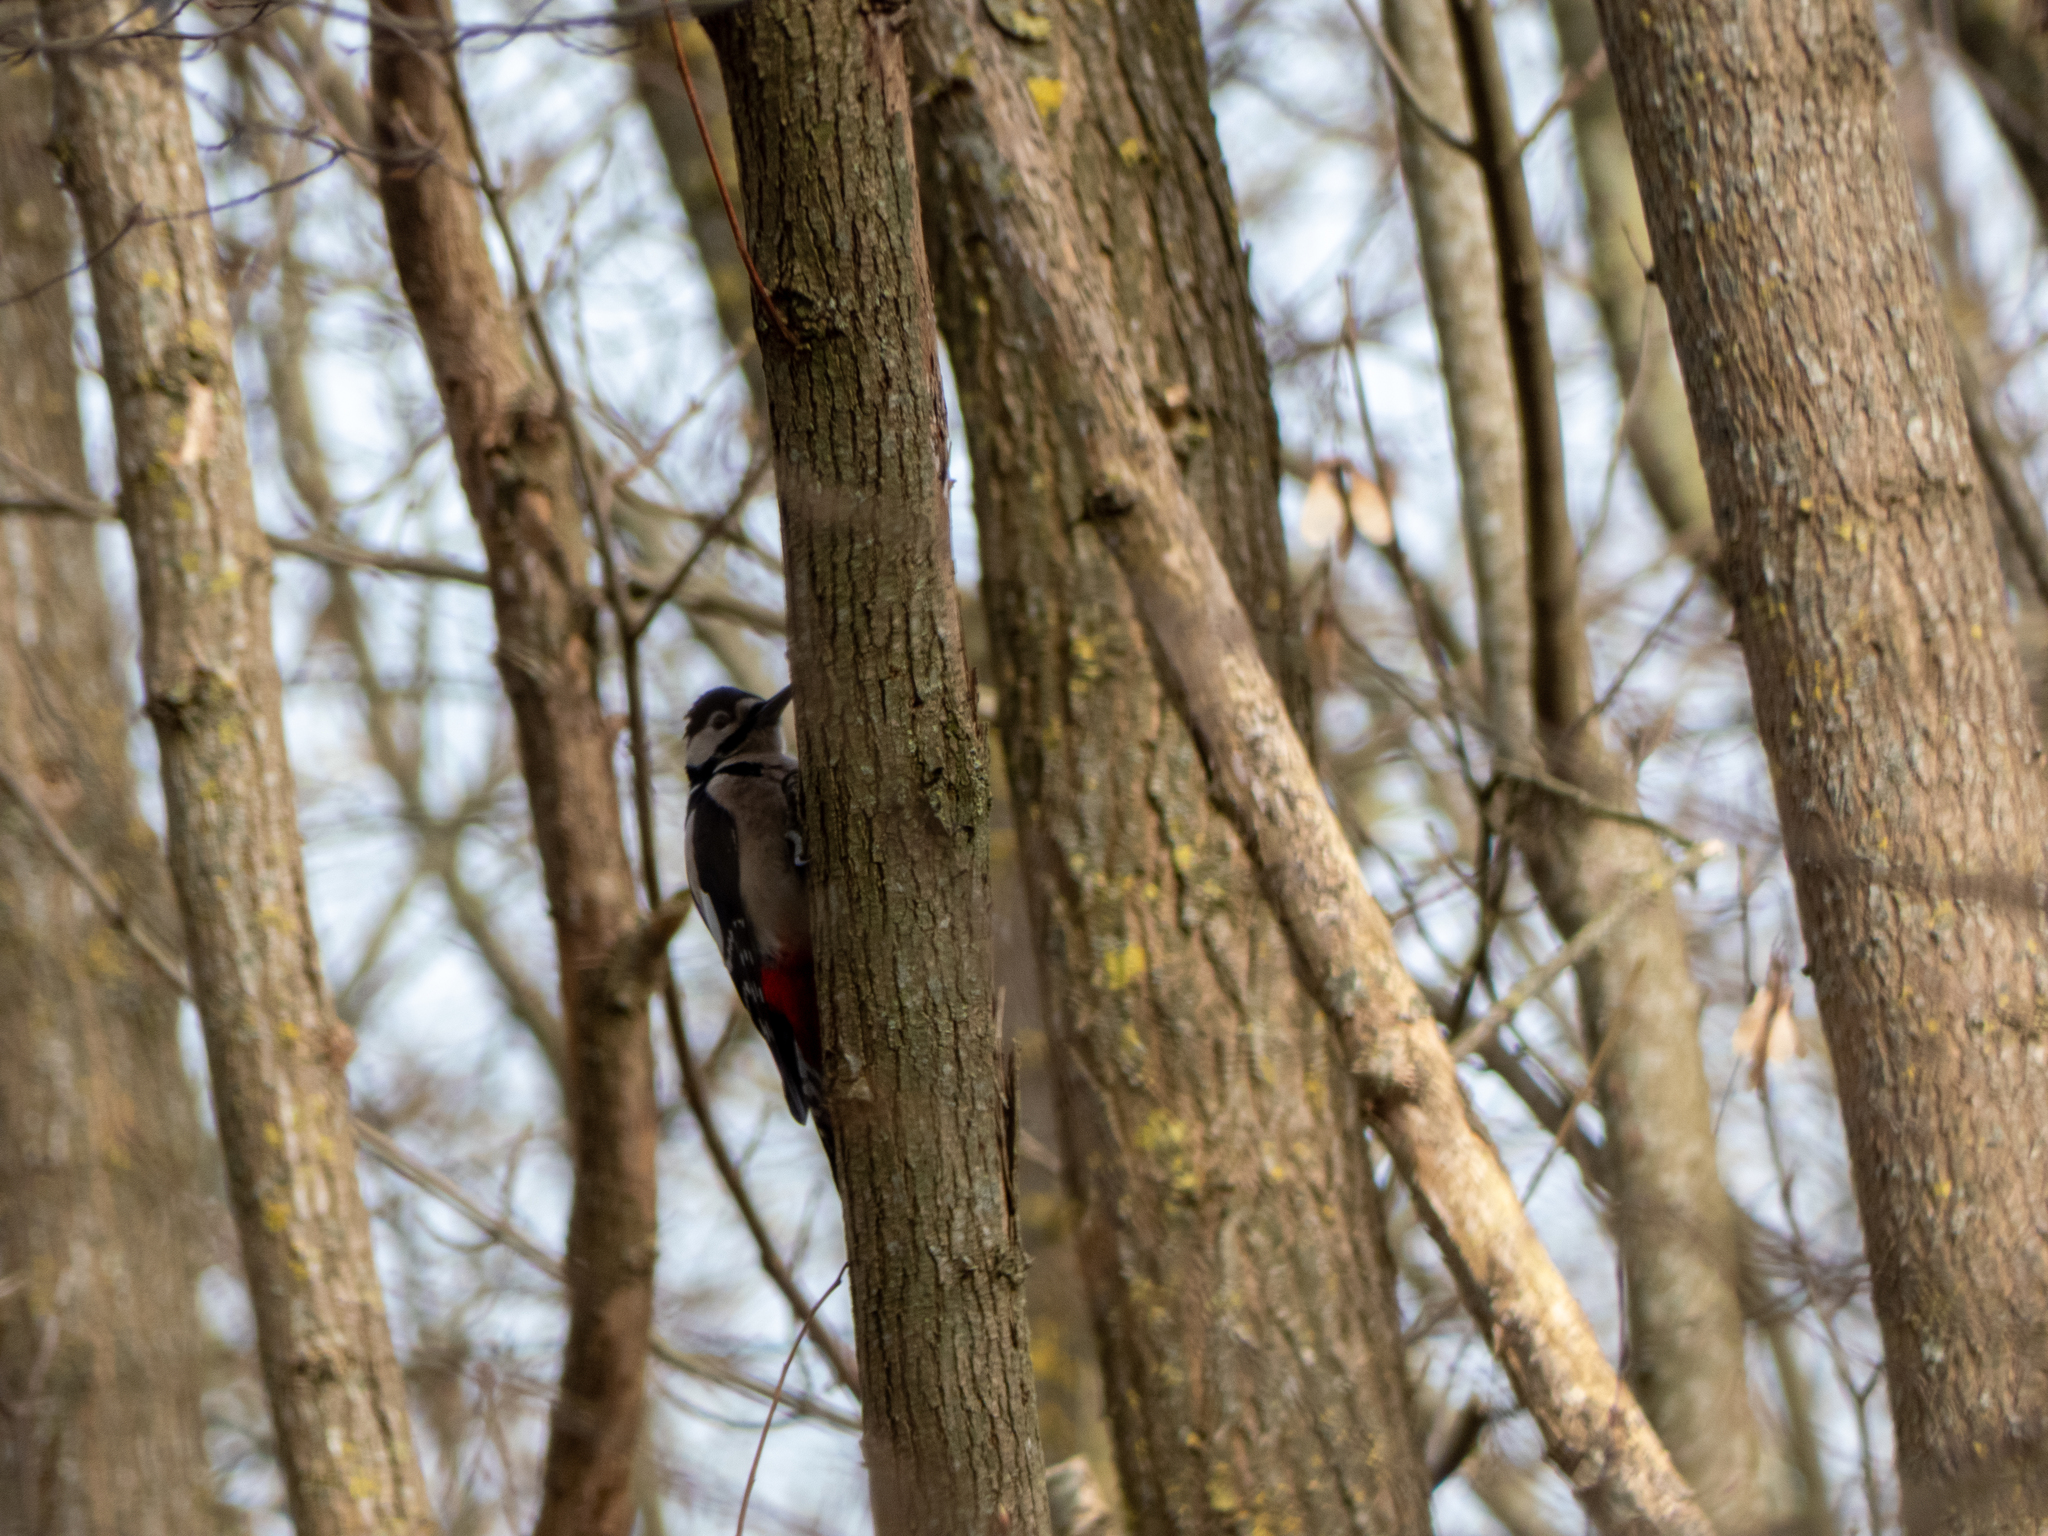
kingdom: Animalia
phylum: Chordata
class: Aves
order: Piciformes
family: Picidae
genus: Dendrocopos
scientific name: Dendrocopos major
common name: Great spotted woodpecker
